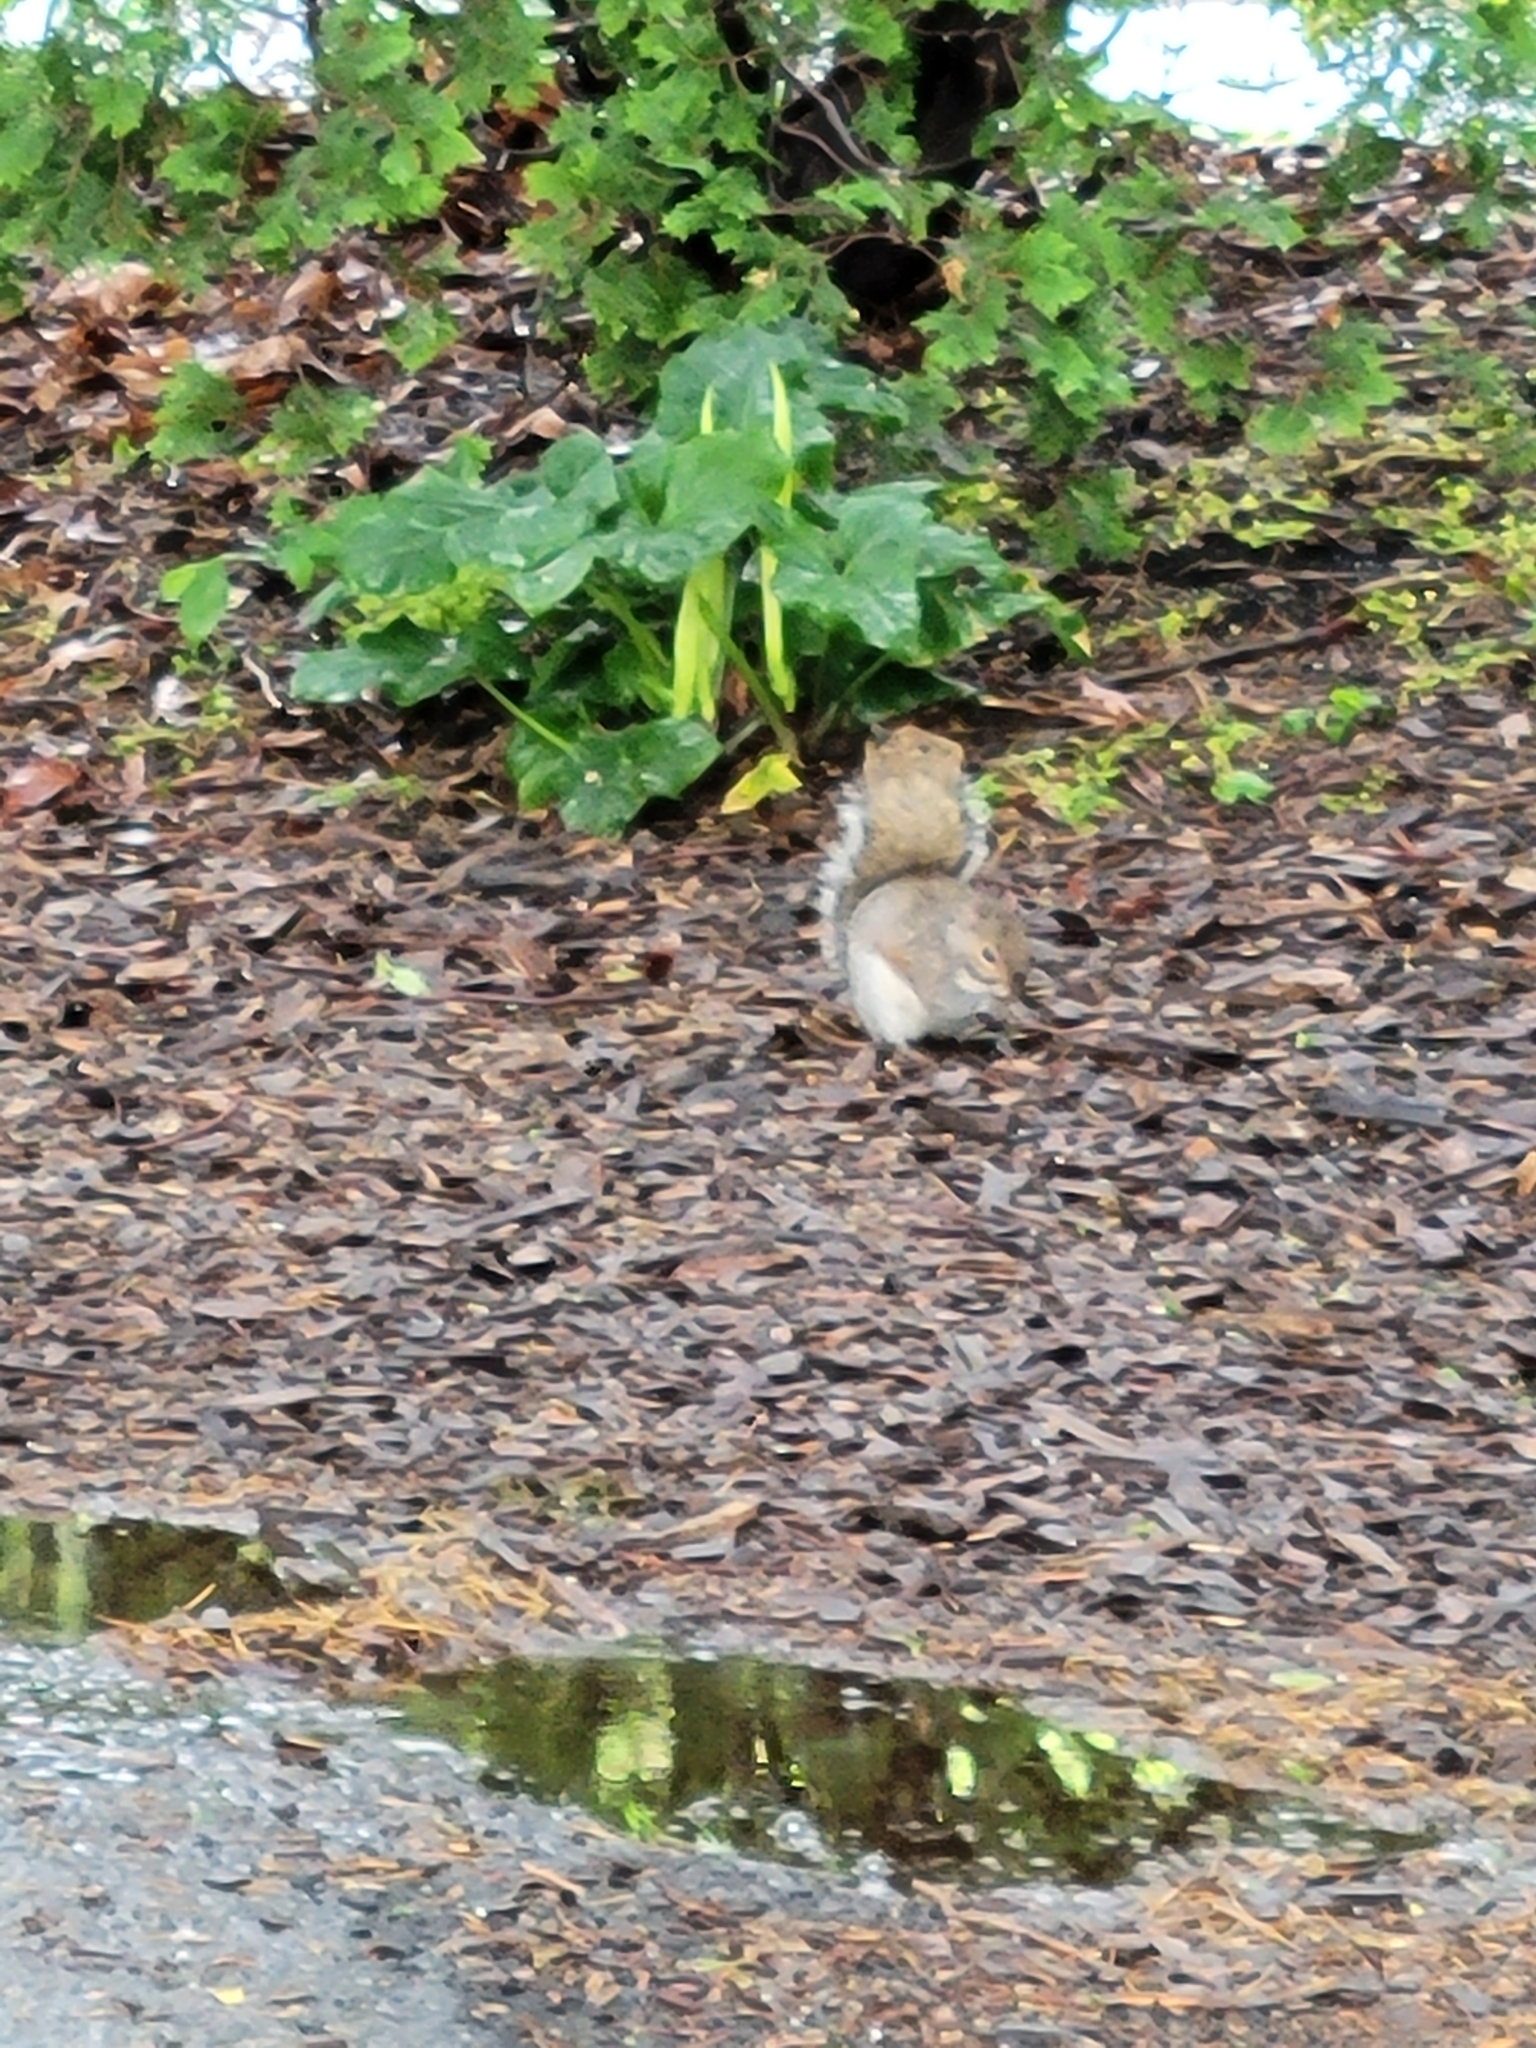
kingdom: Animalia
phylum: Chordata
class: Mammalia
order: Rodentia
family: Sciuridae
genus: Sciurus
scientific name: Sciurus carolinensis
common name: Eastern gray squirrel
